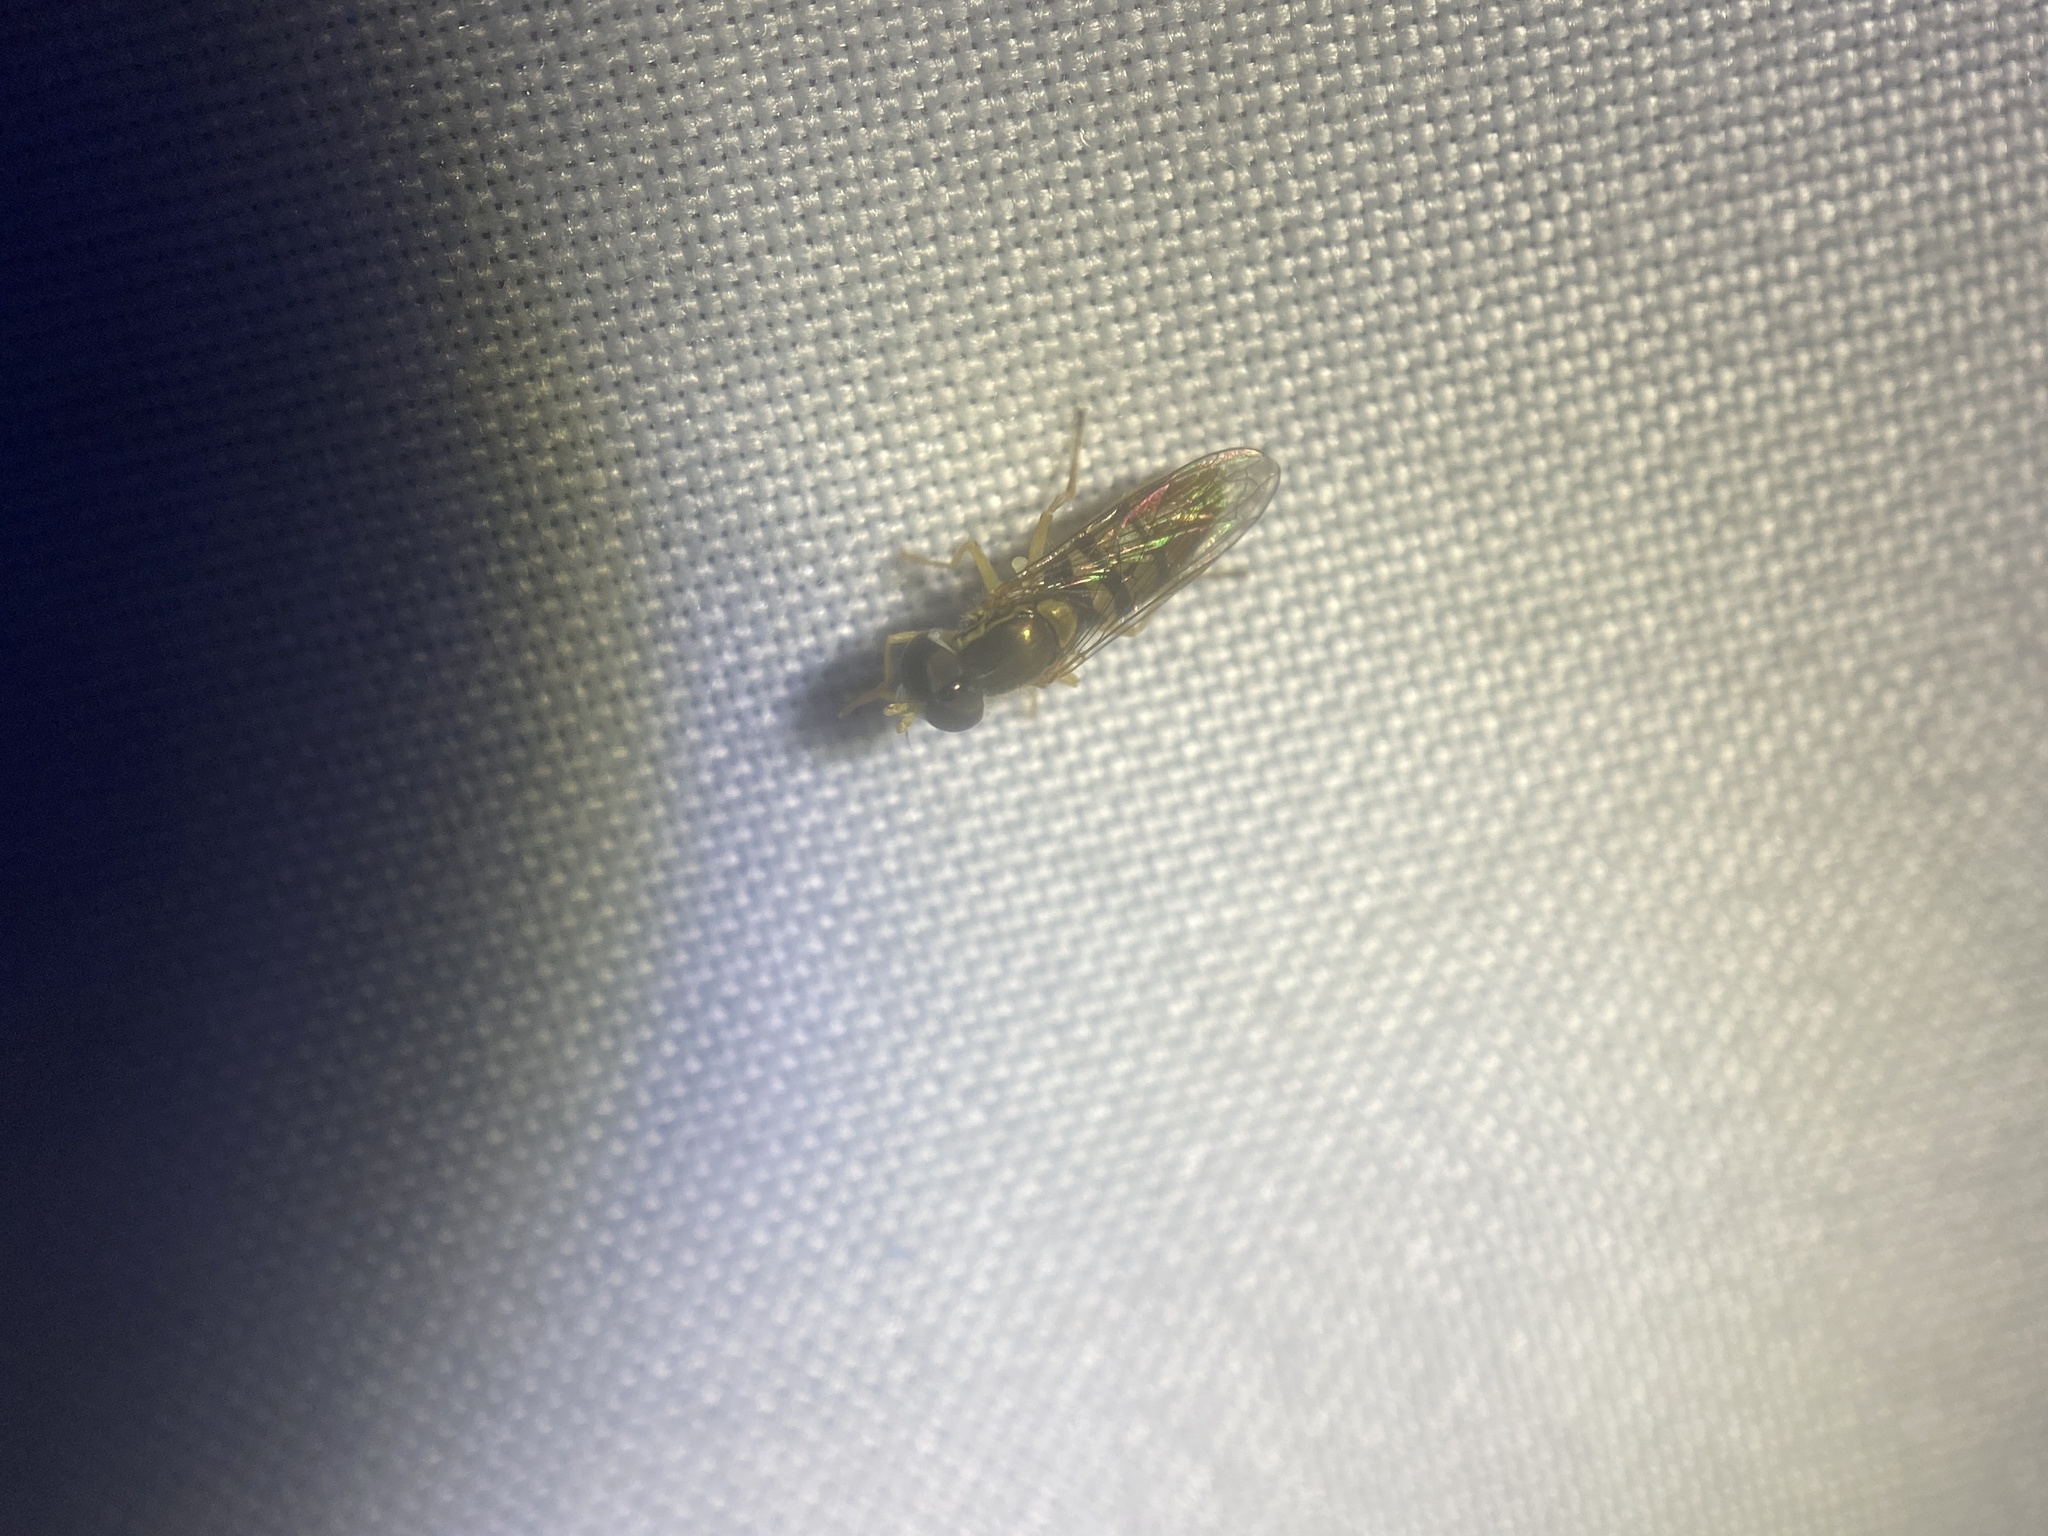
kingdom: Animalia
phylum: Arthropoda
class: Insecta
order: Diptera
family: Syrphidae
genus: Toxomerus
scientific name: Toxomerus marginatus
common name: Syrphid fly
